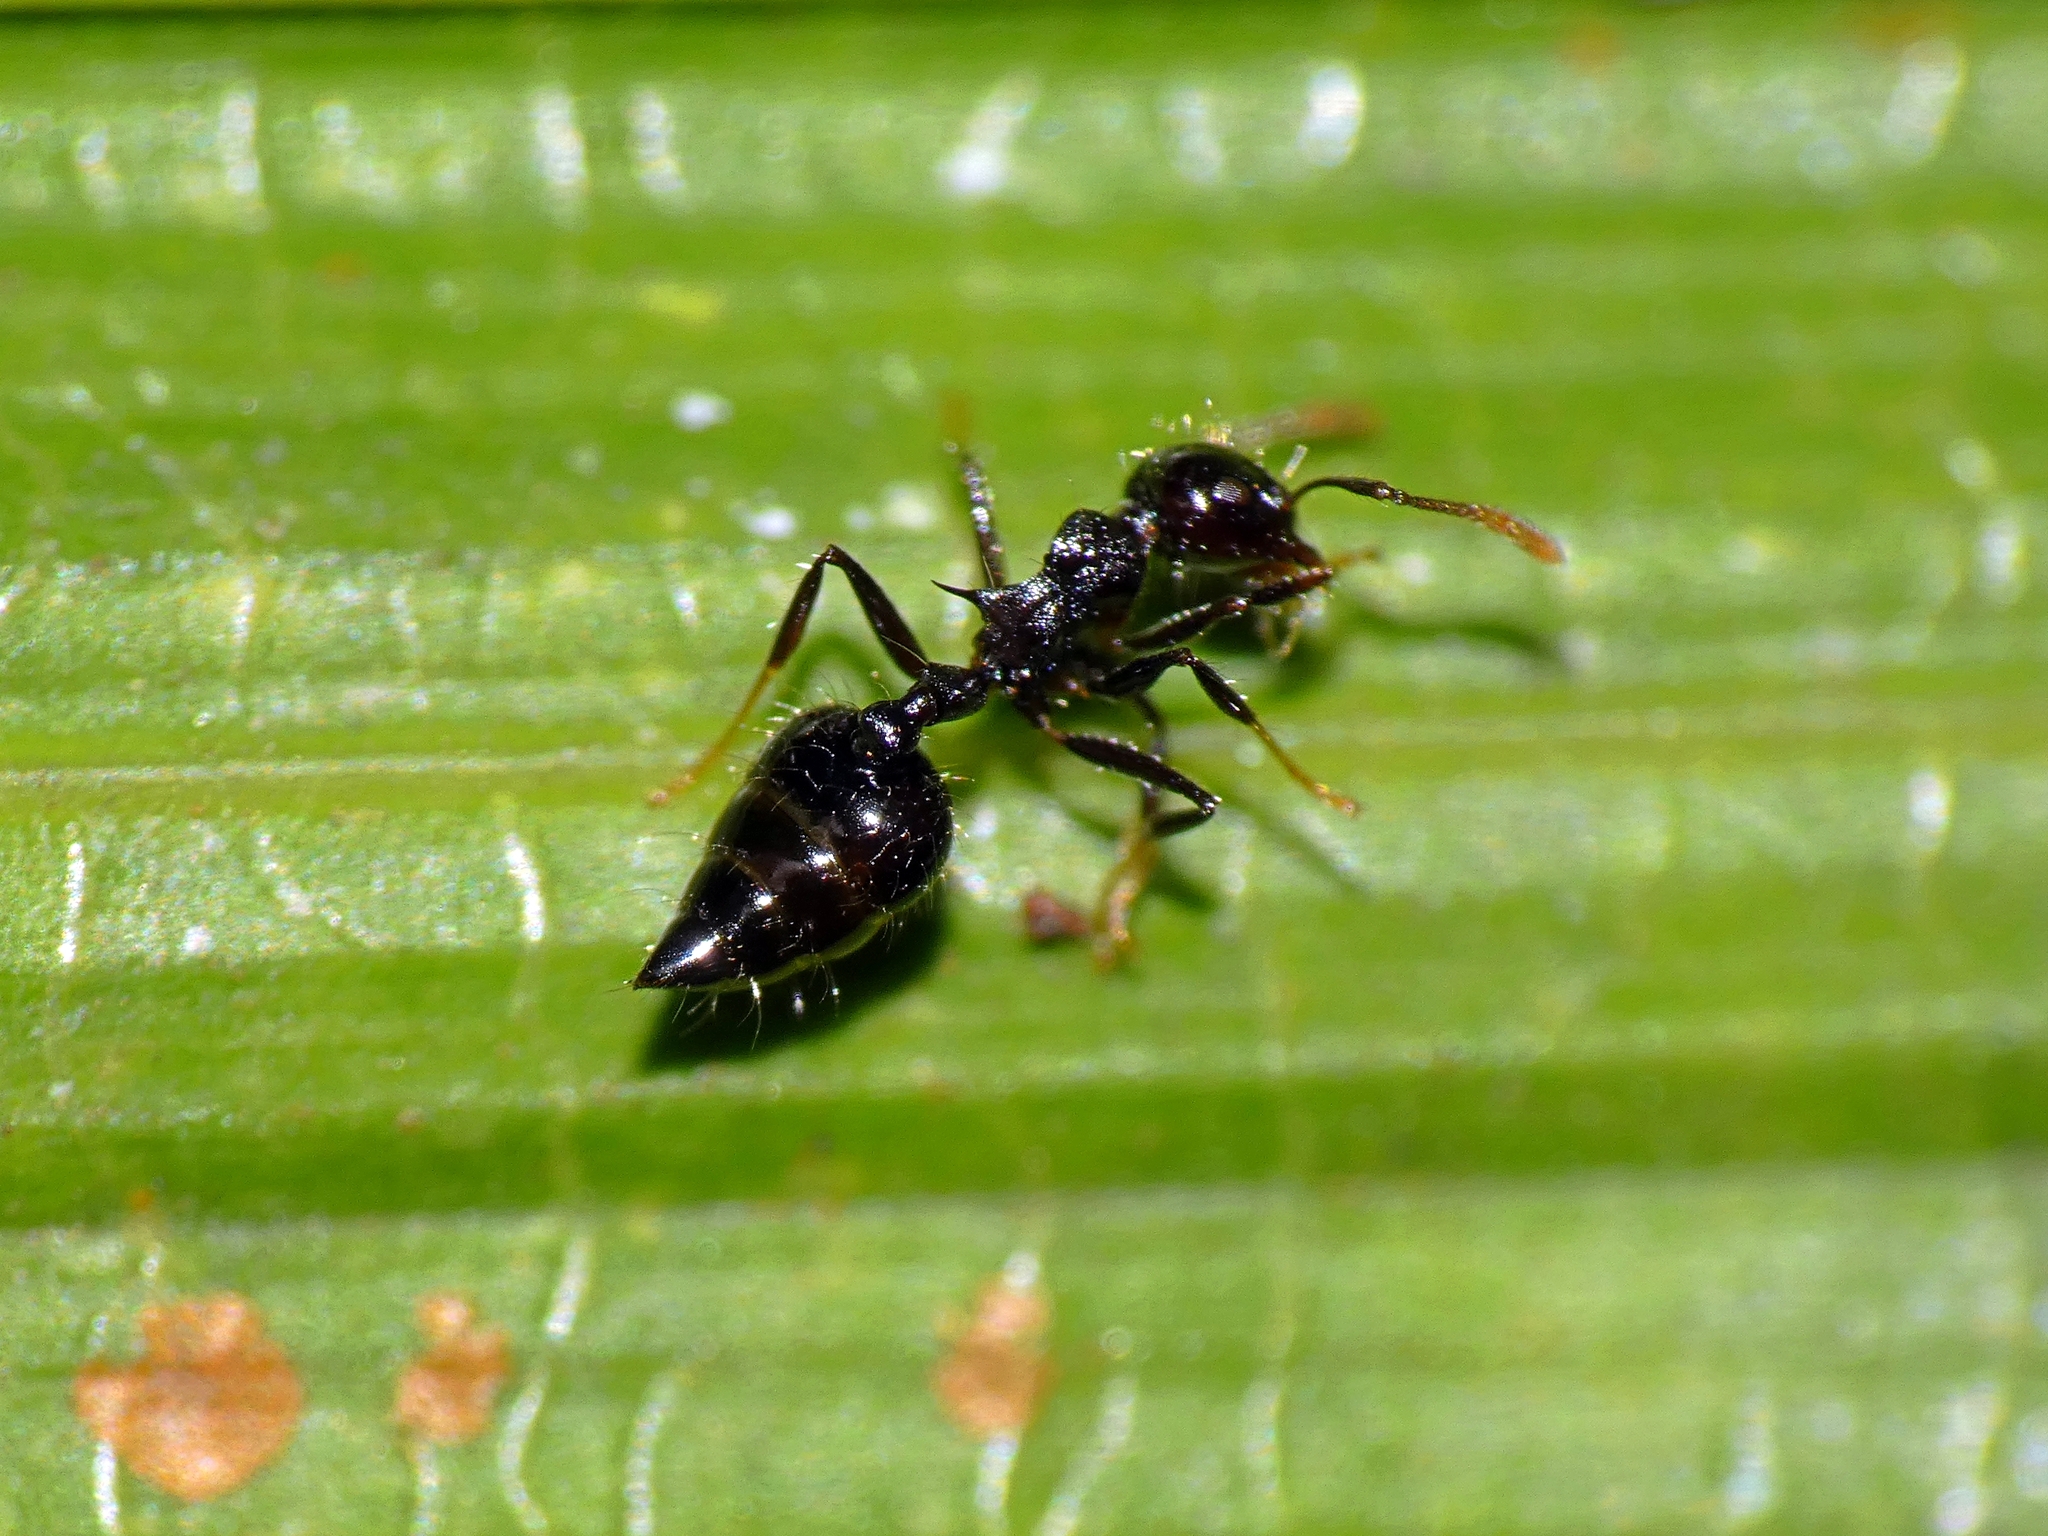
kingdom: Animalia
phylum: Arthropoda
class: Insecta
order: Hymenoptera
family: Formicidae
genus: Crematogaster
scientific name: Crematogaster mesonotalis
